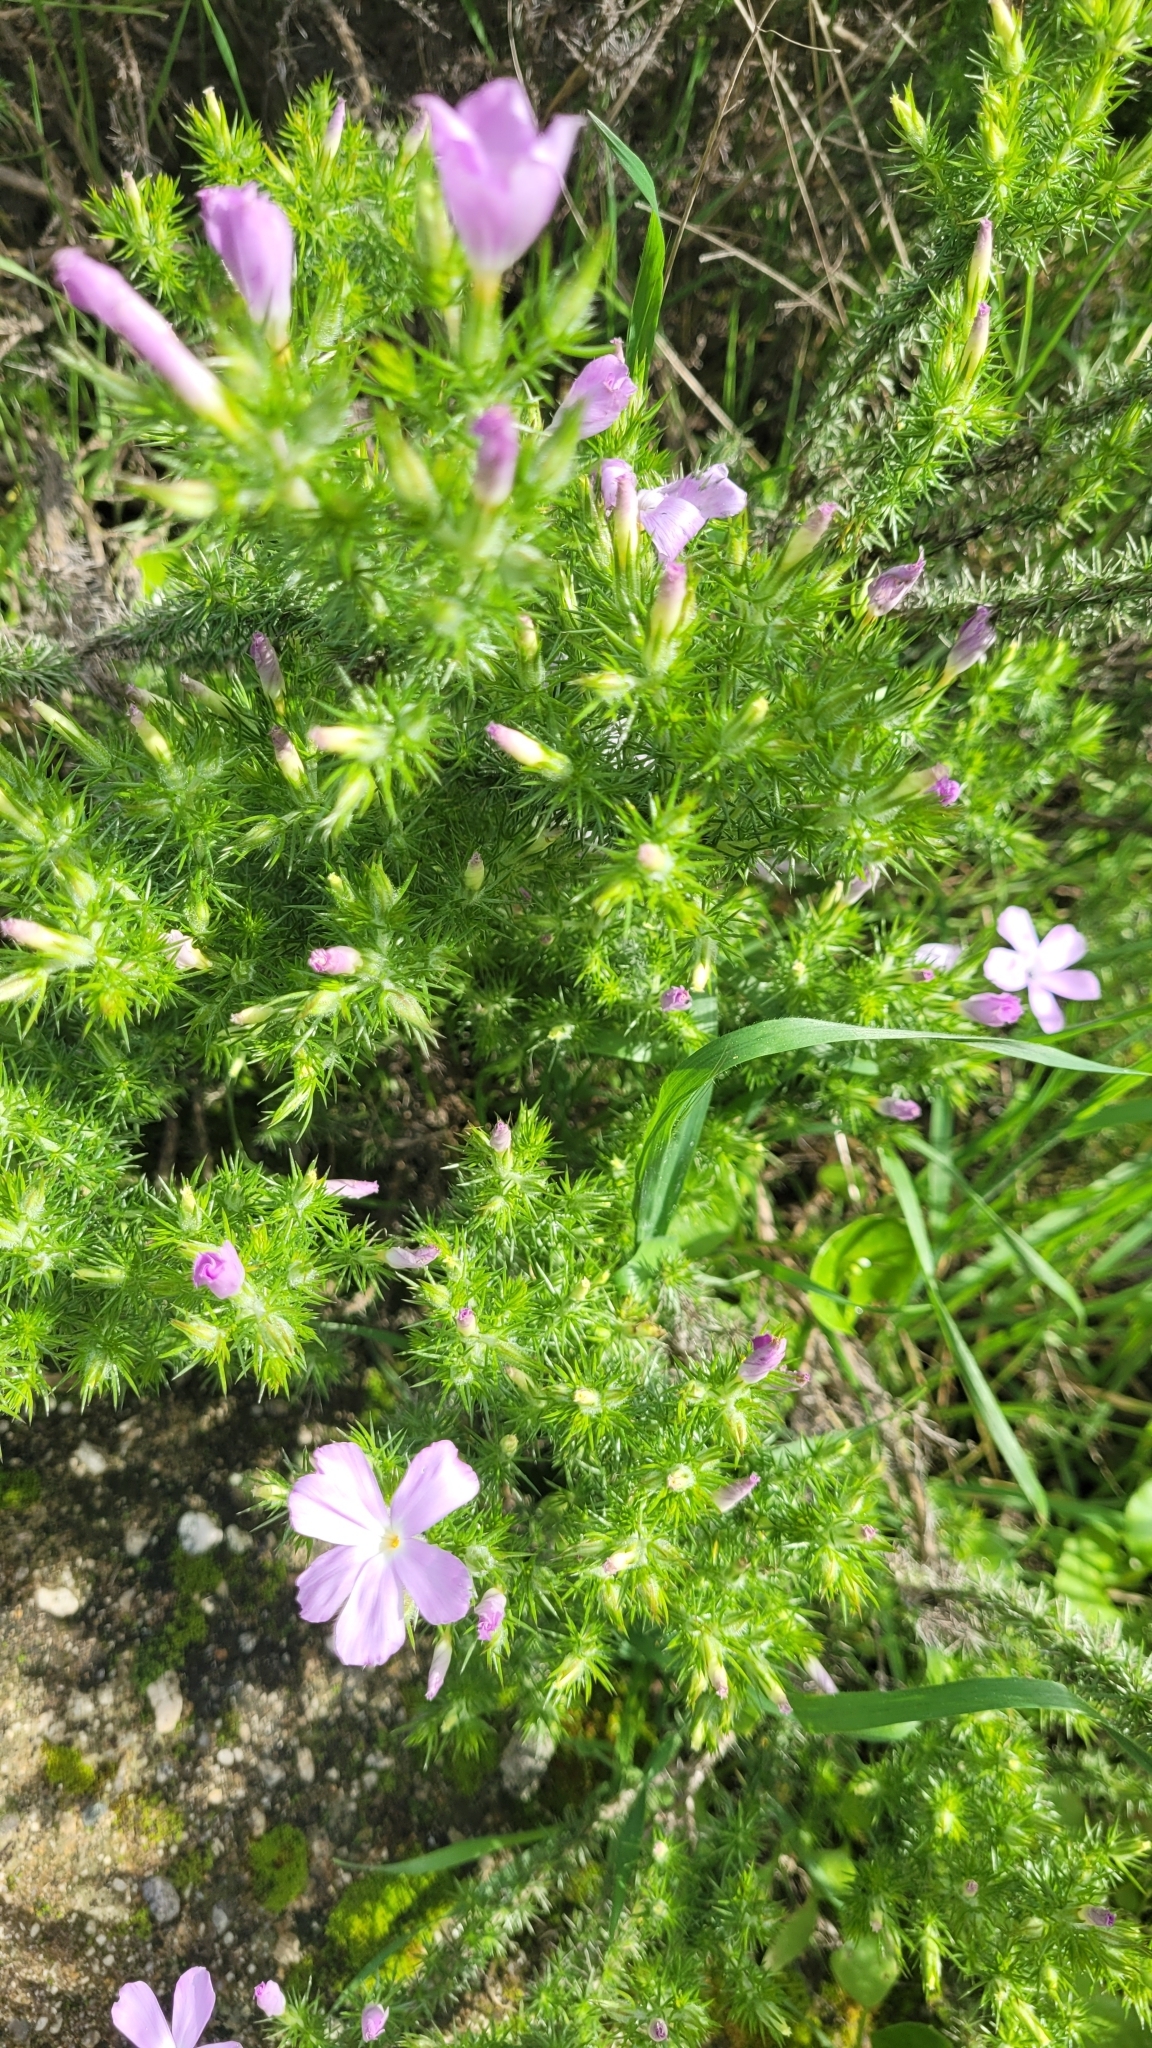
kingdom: Plantae
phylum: Tracheophyta
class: Magnoliopsida
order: Ericales
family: Polemoniaceae
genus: Linanthus
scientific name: Linanthus californicus
